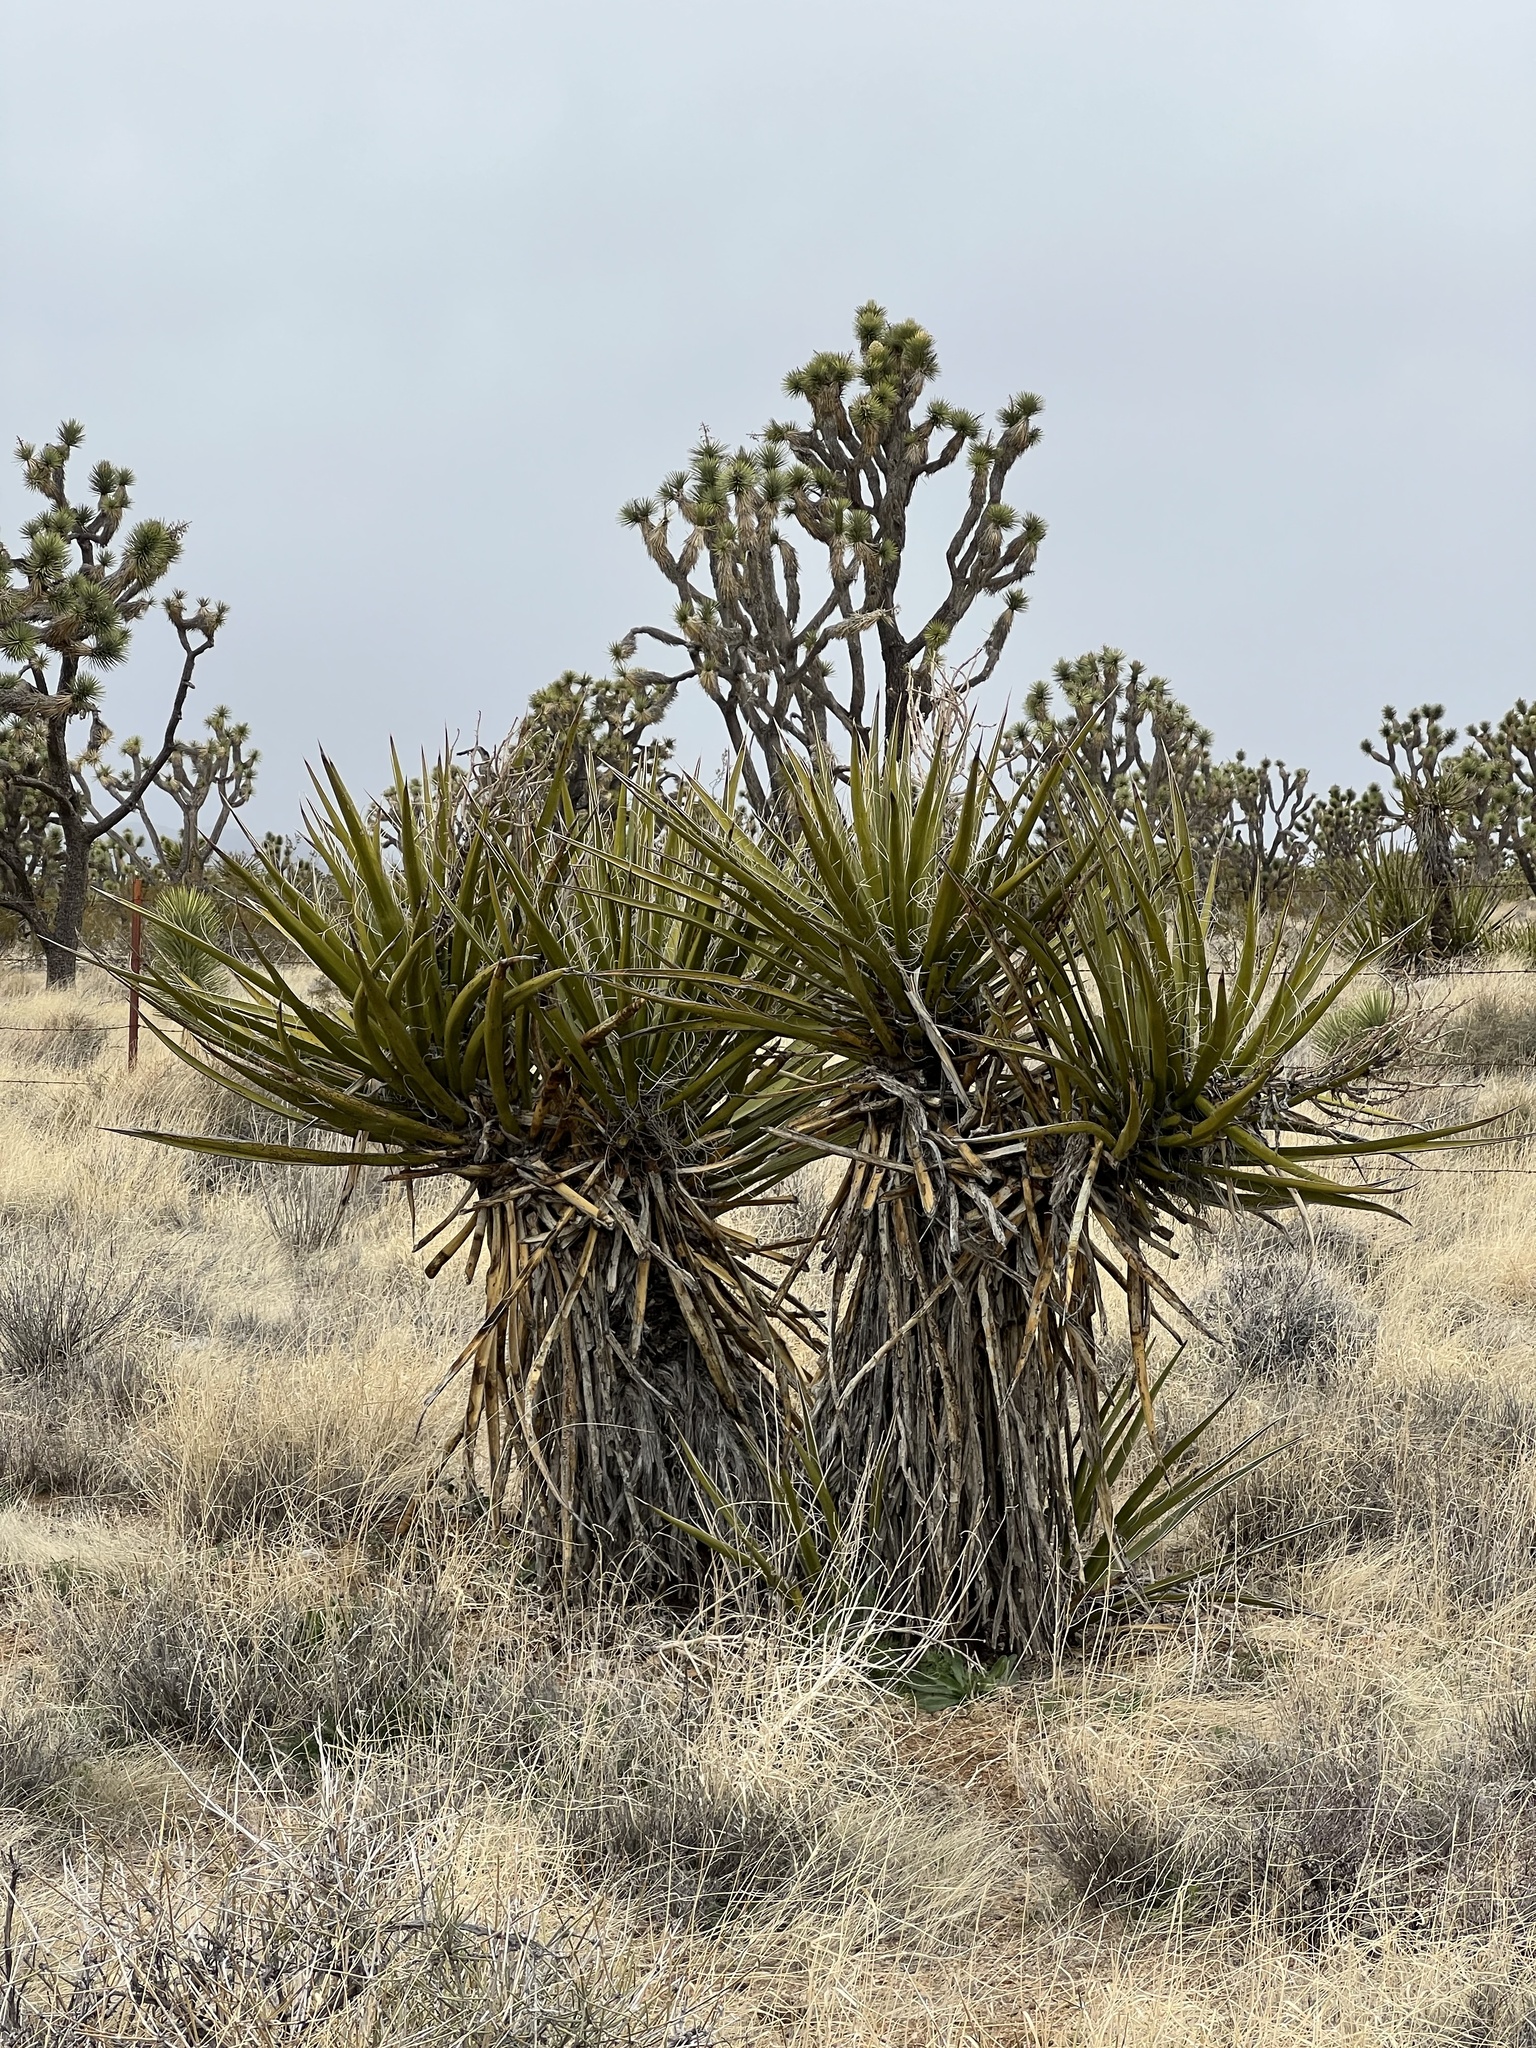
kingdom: Plantae
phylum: Tracheophyta
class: Liliopsida
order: Asparagales
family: Asparagaceae
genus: Yucca
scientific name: Yucca schidigera
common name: Mojave yucca
